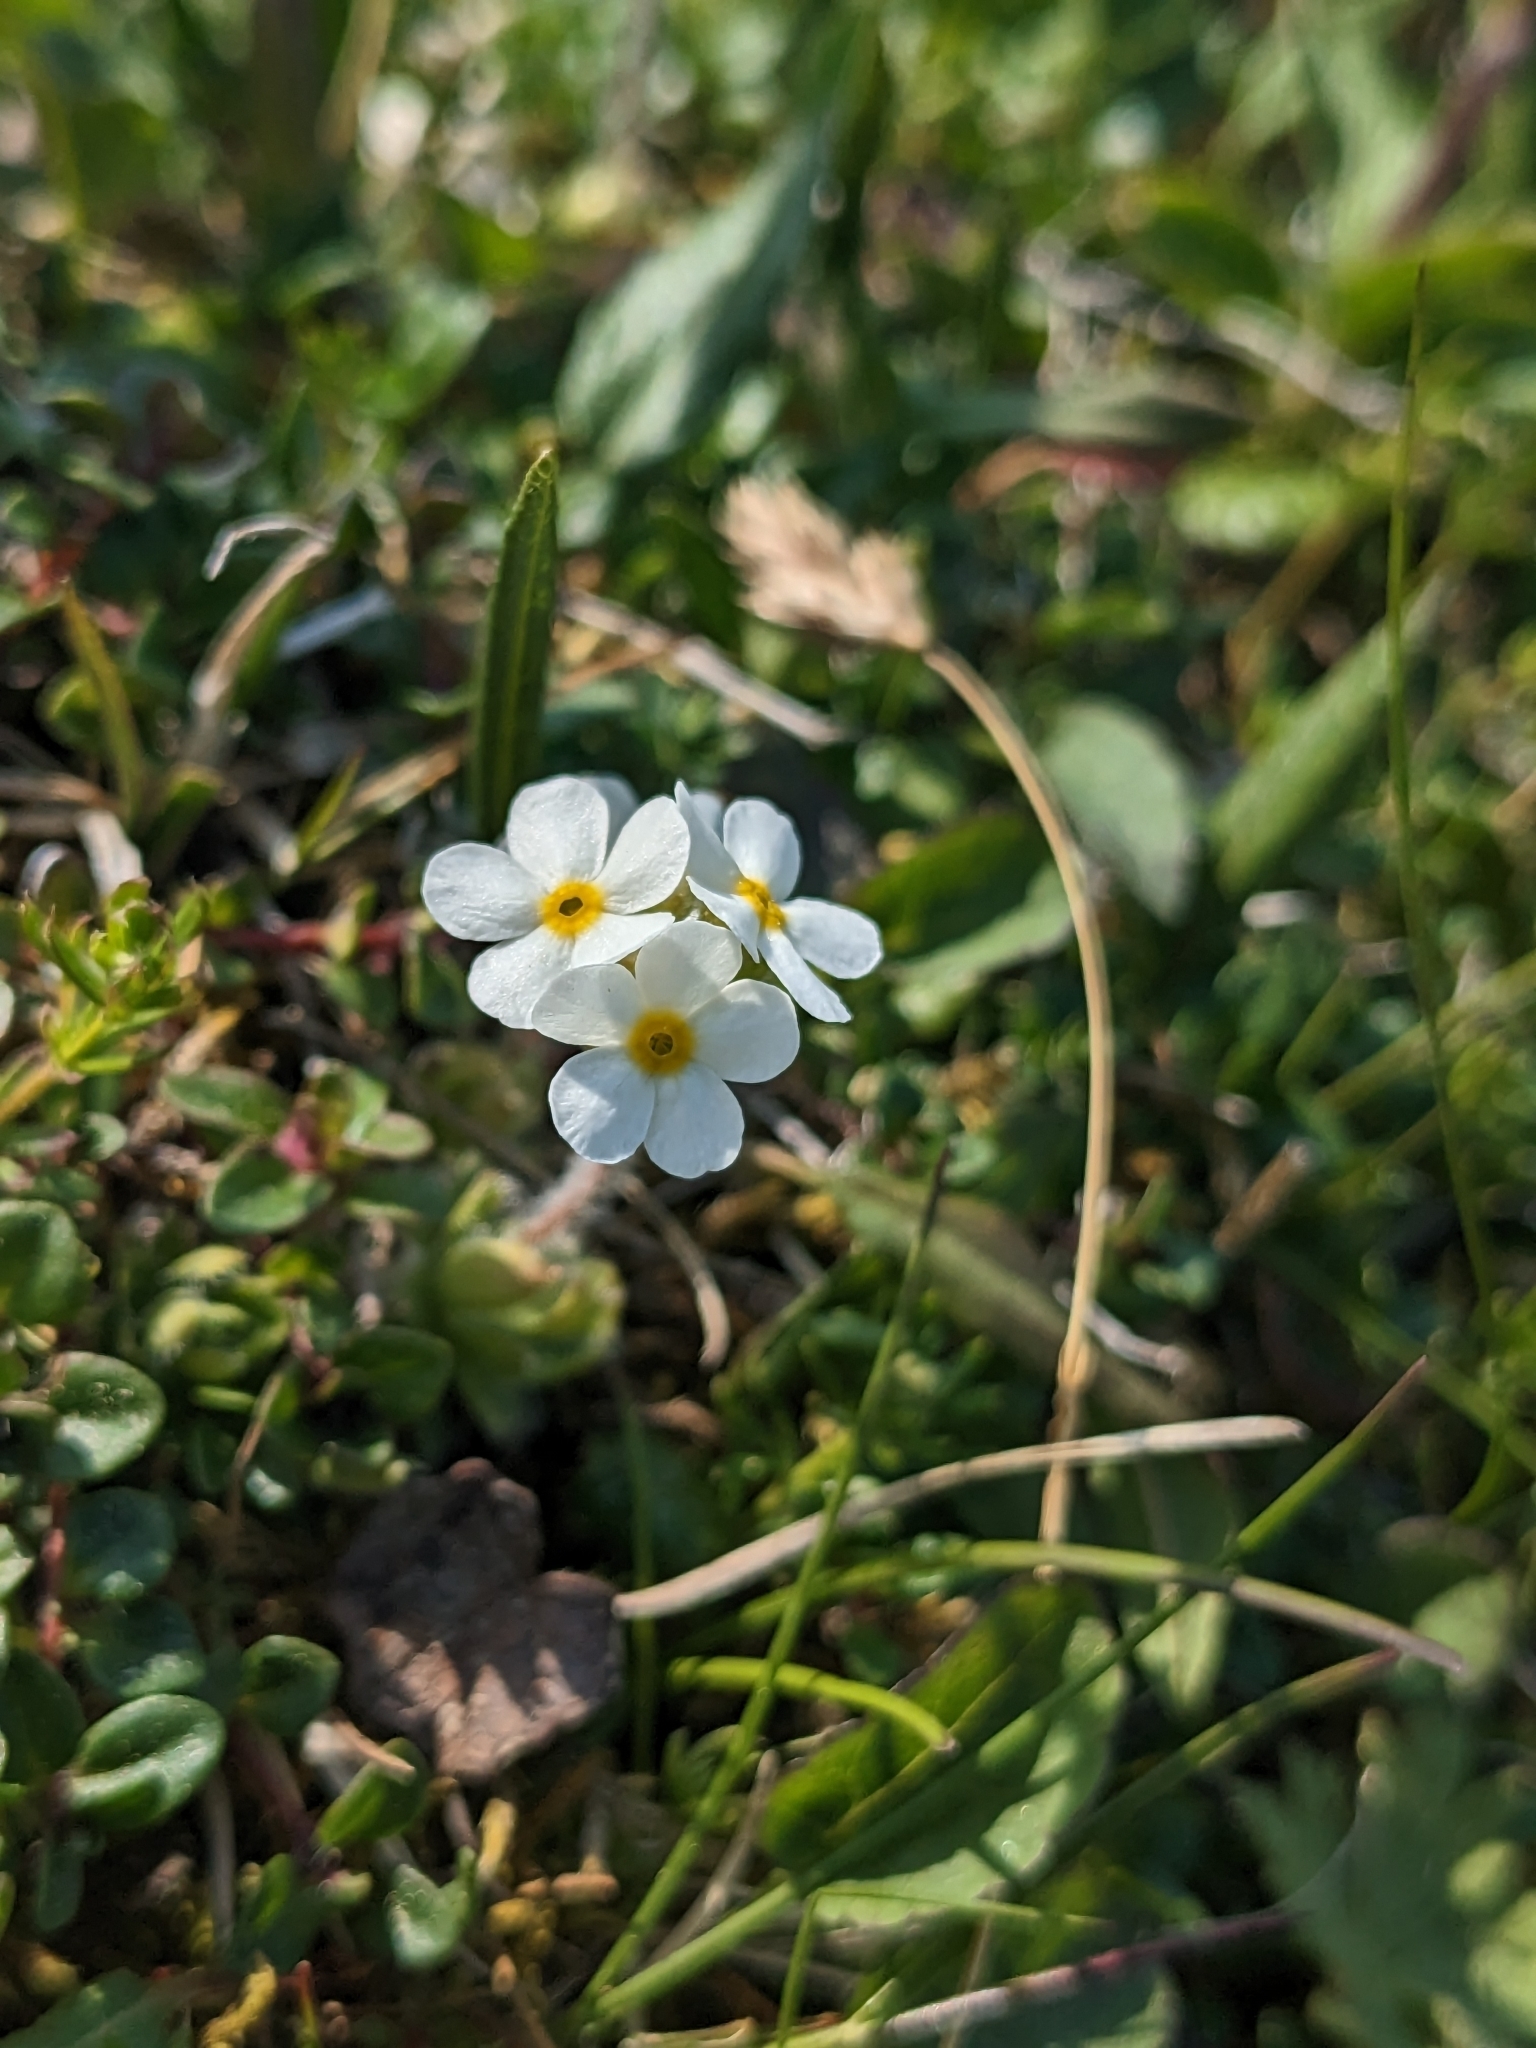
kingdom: Plantae
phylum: Tracheophyta
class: Magnoliopsida
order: Ericales
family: Primulaceae
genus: Androsace
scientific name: Androsace chamaejasme
